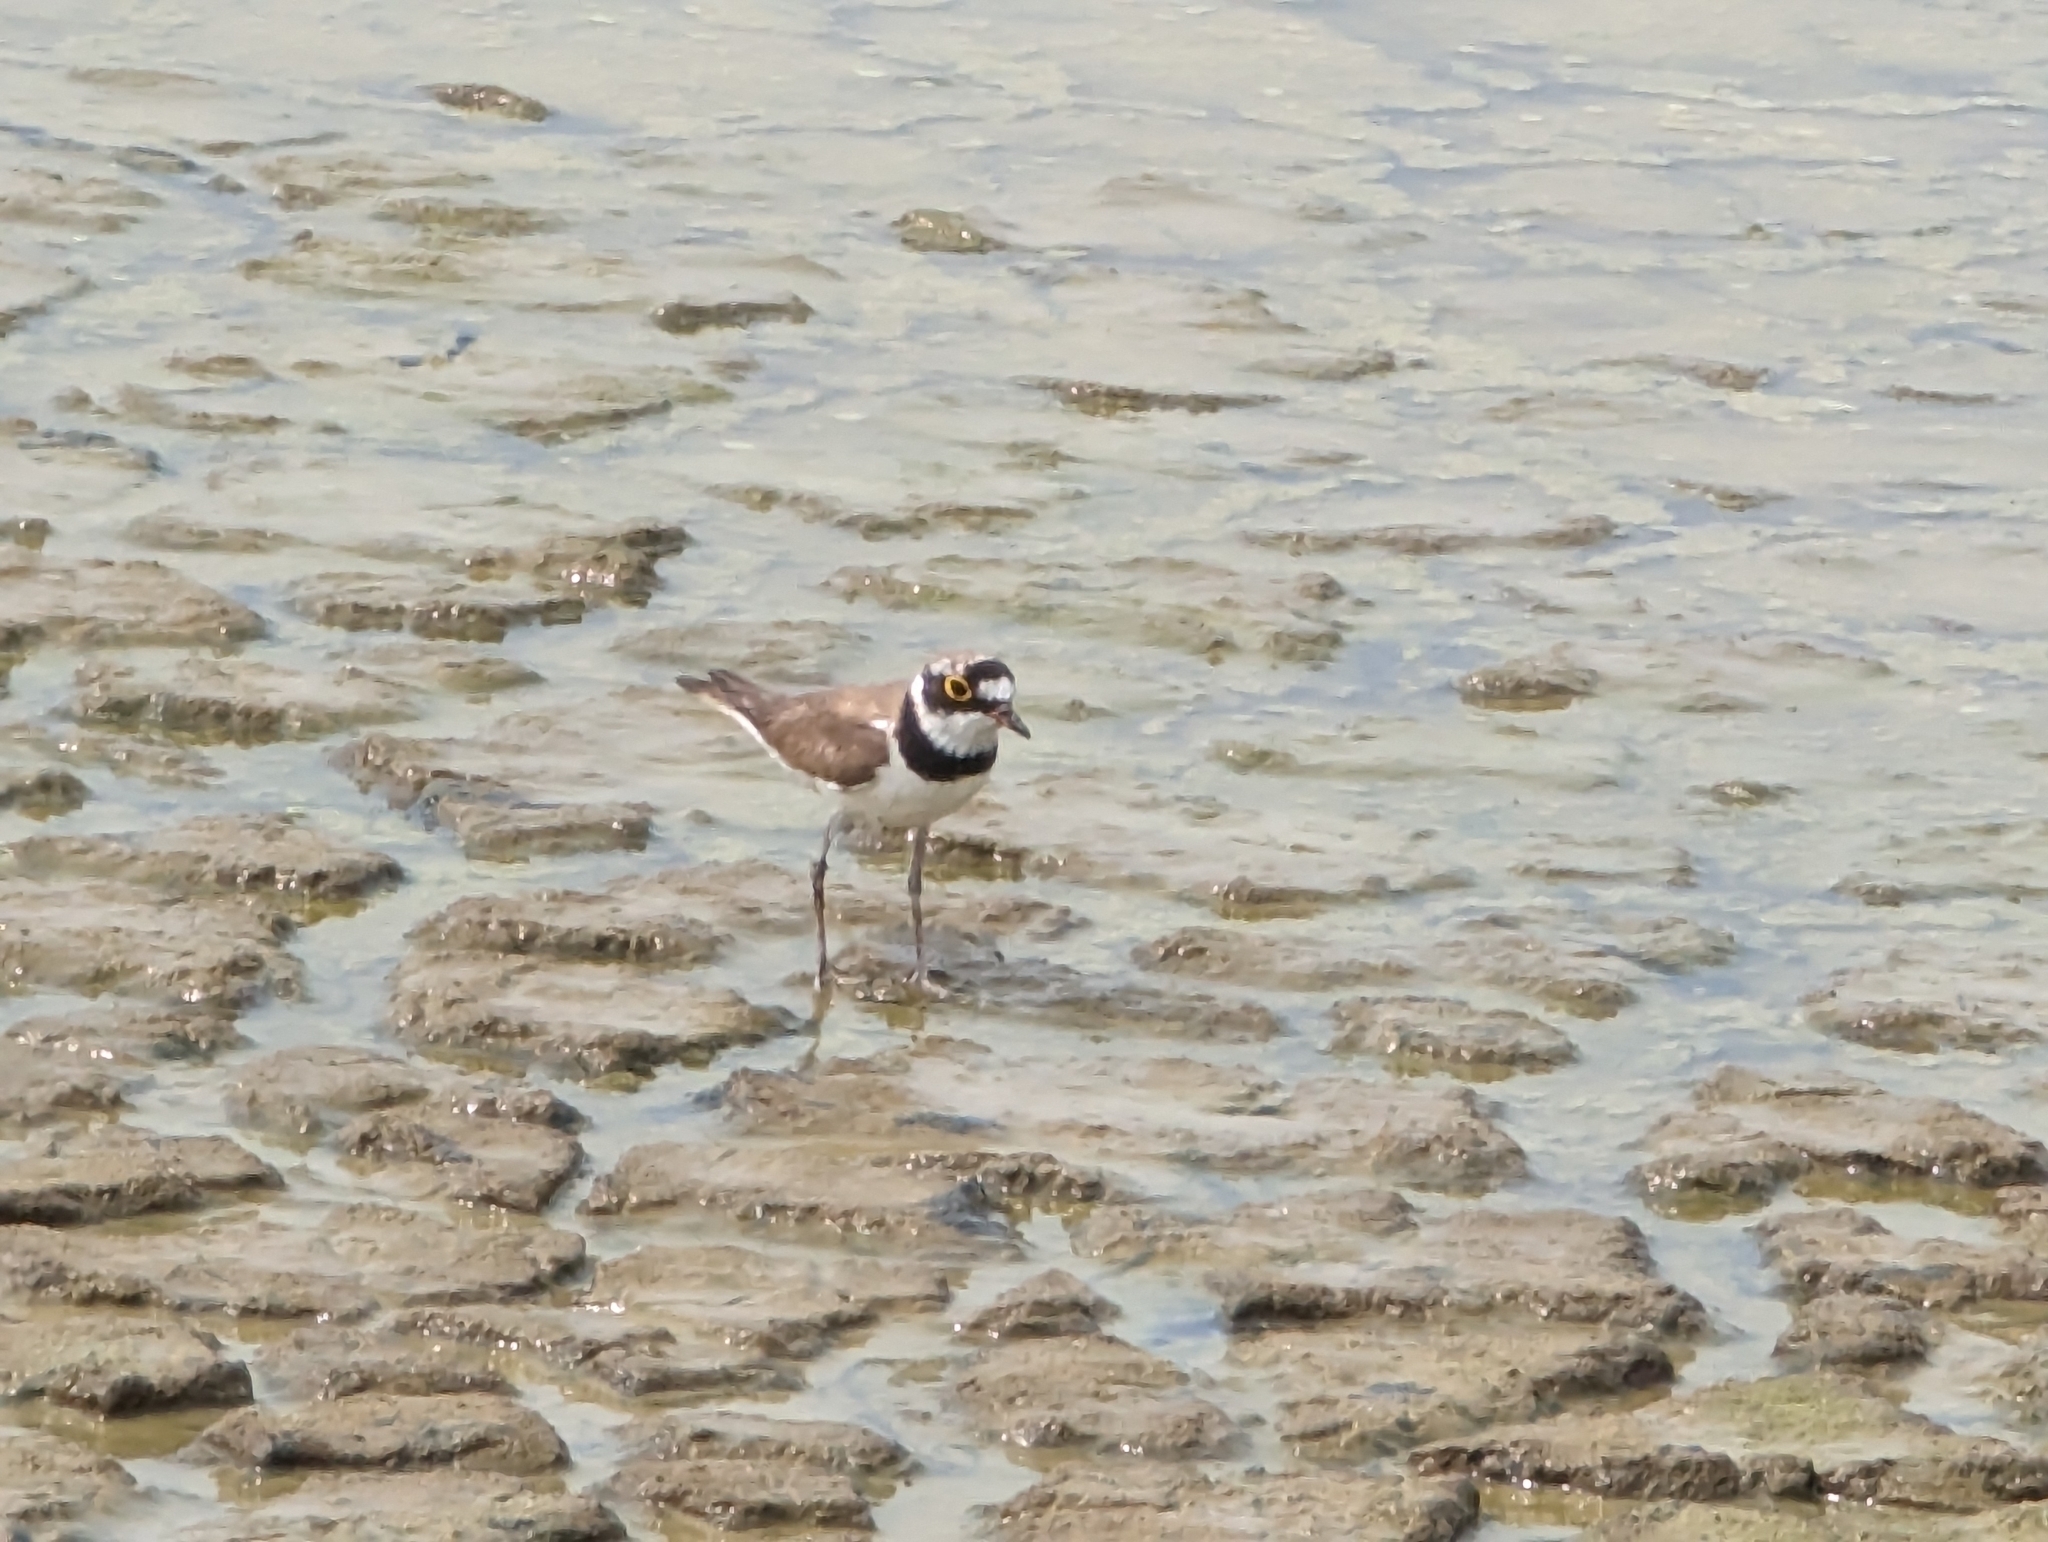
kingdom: Animalia
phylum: Chordata
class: Aves
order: Charadriiformes
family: Charadriidae
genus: Charadrius
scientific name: Charadrius dubius
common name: Little ringed plover
